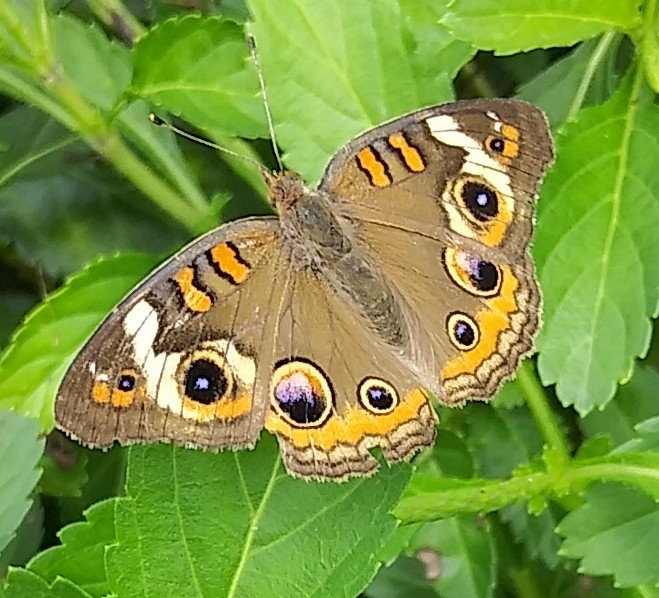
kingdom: Animalia
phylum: Arthropoda
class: Insecta
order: Lepidoptera
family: Nymphalidae
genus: Junonia
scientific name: Junonia coenia
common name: Common buckeye
